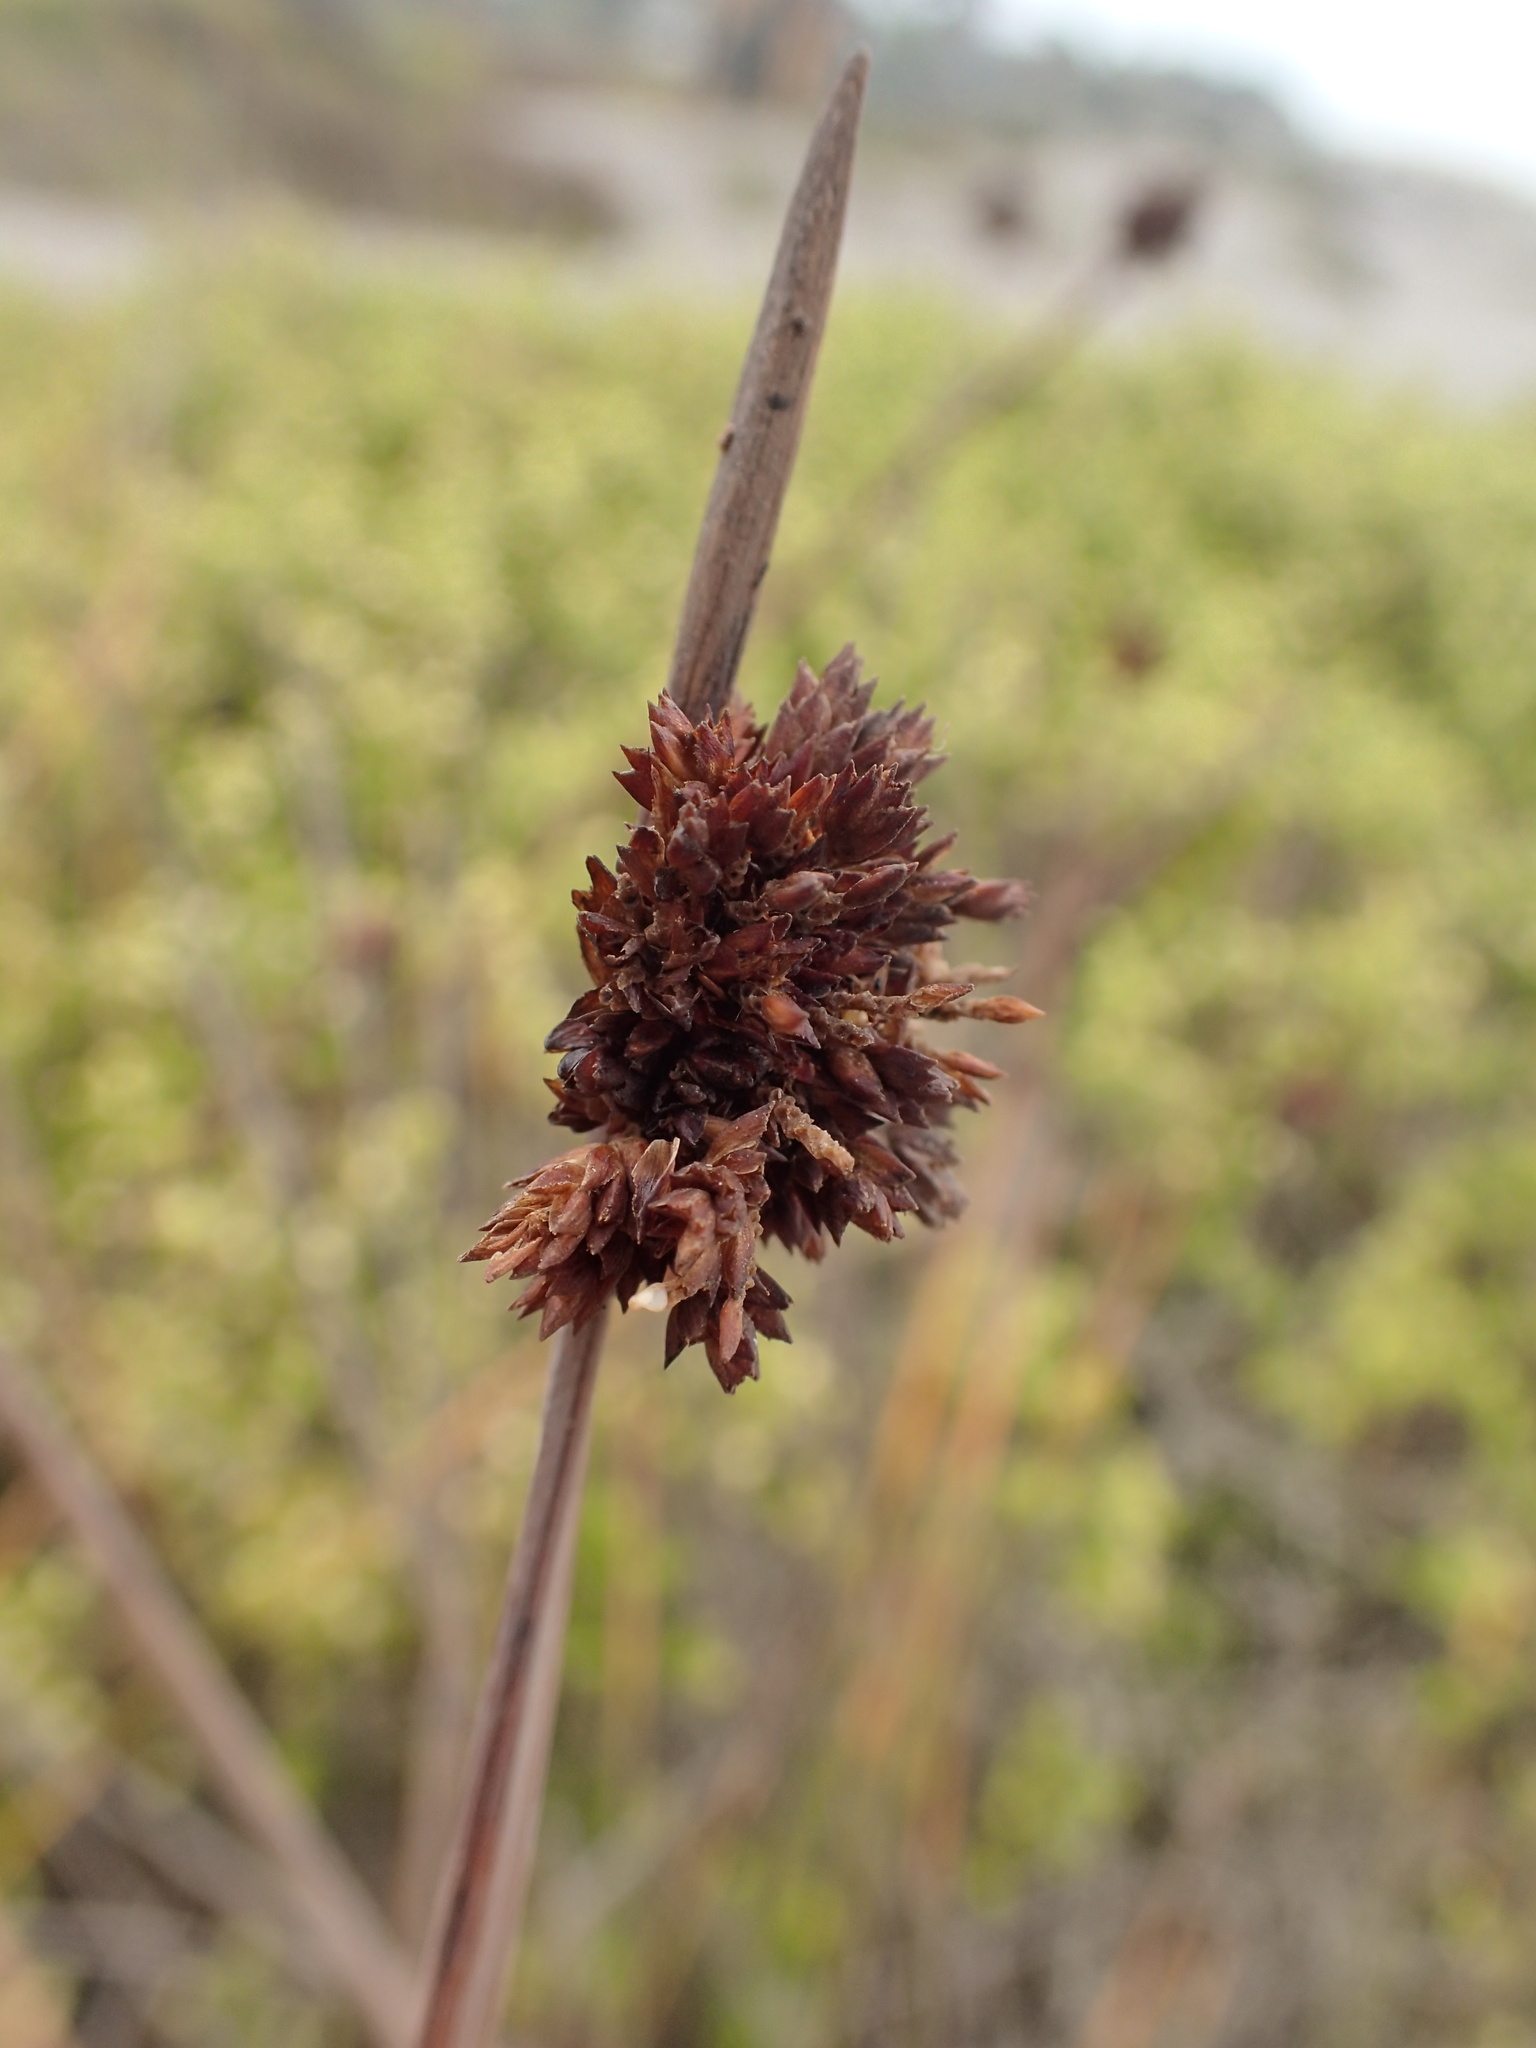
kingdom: Plantae
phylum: Tracheophyta
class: Liliopsida
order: Poales
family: Cyperaceae
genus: Ficinia
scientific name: Ficinia nodosa
